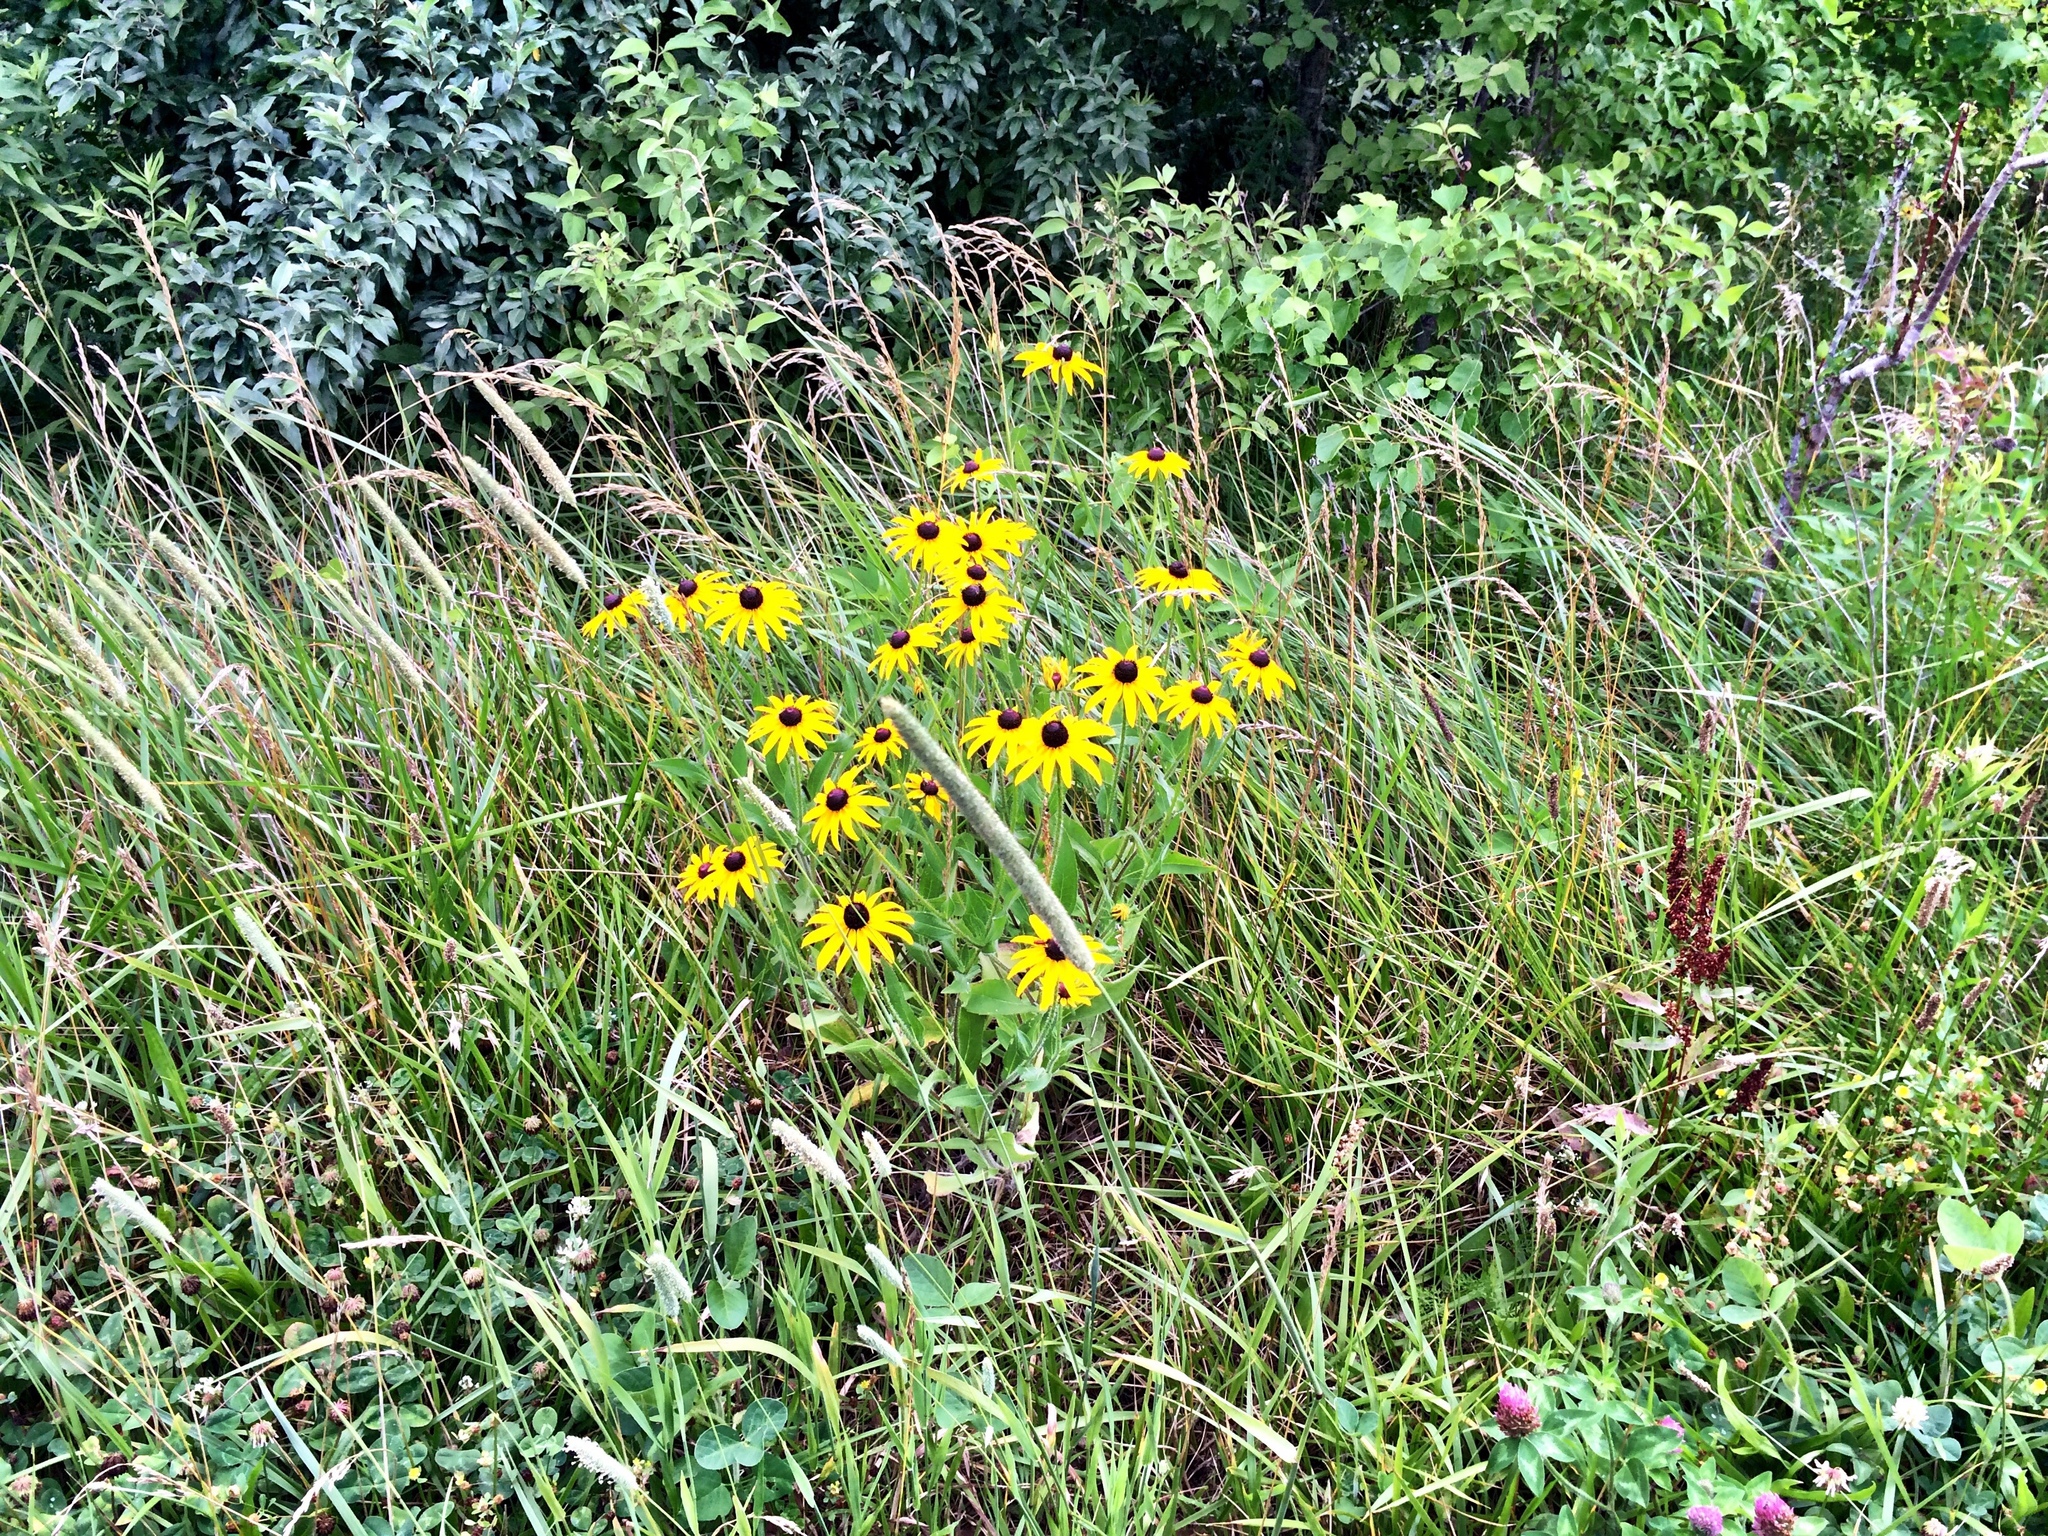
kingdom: Plantae
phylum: Tracheophyta
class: Magnoliopsida
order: Asterales
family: Asteraceae
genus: Rudbeckia
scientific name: Rudbeckia hirta
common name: Black-eyed-susan
